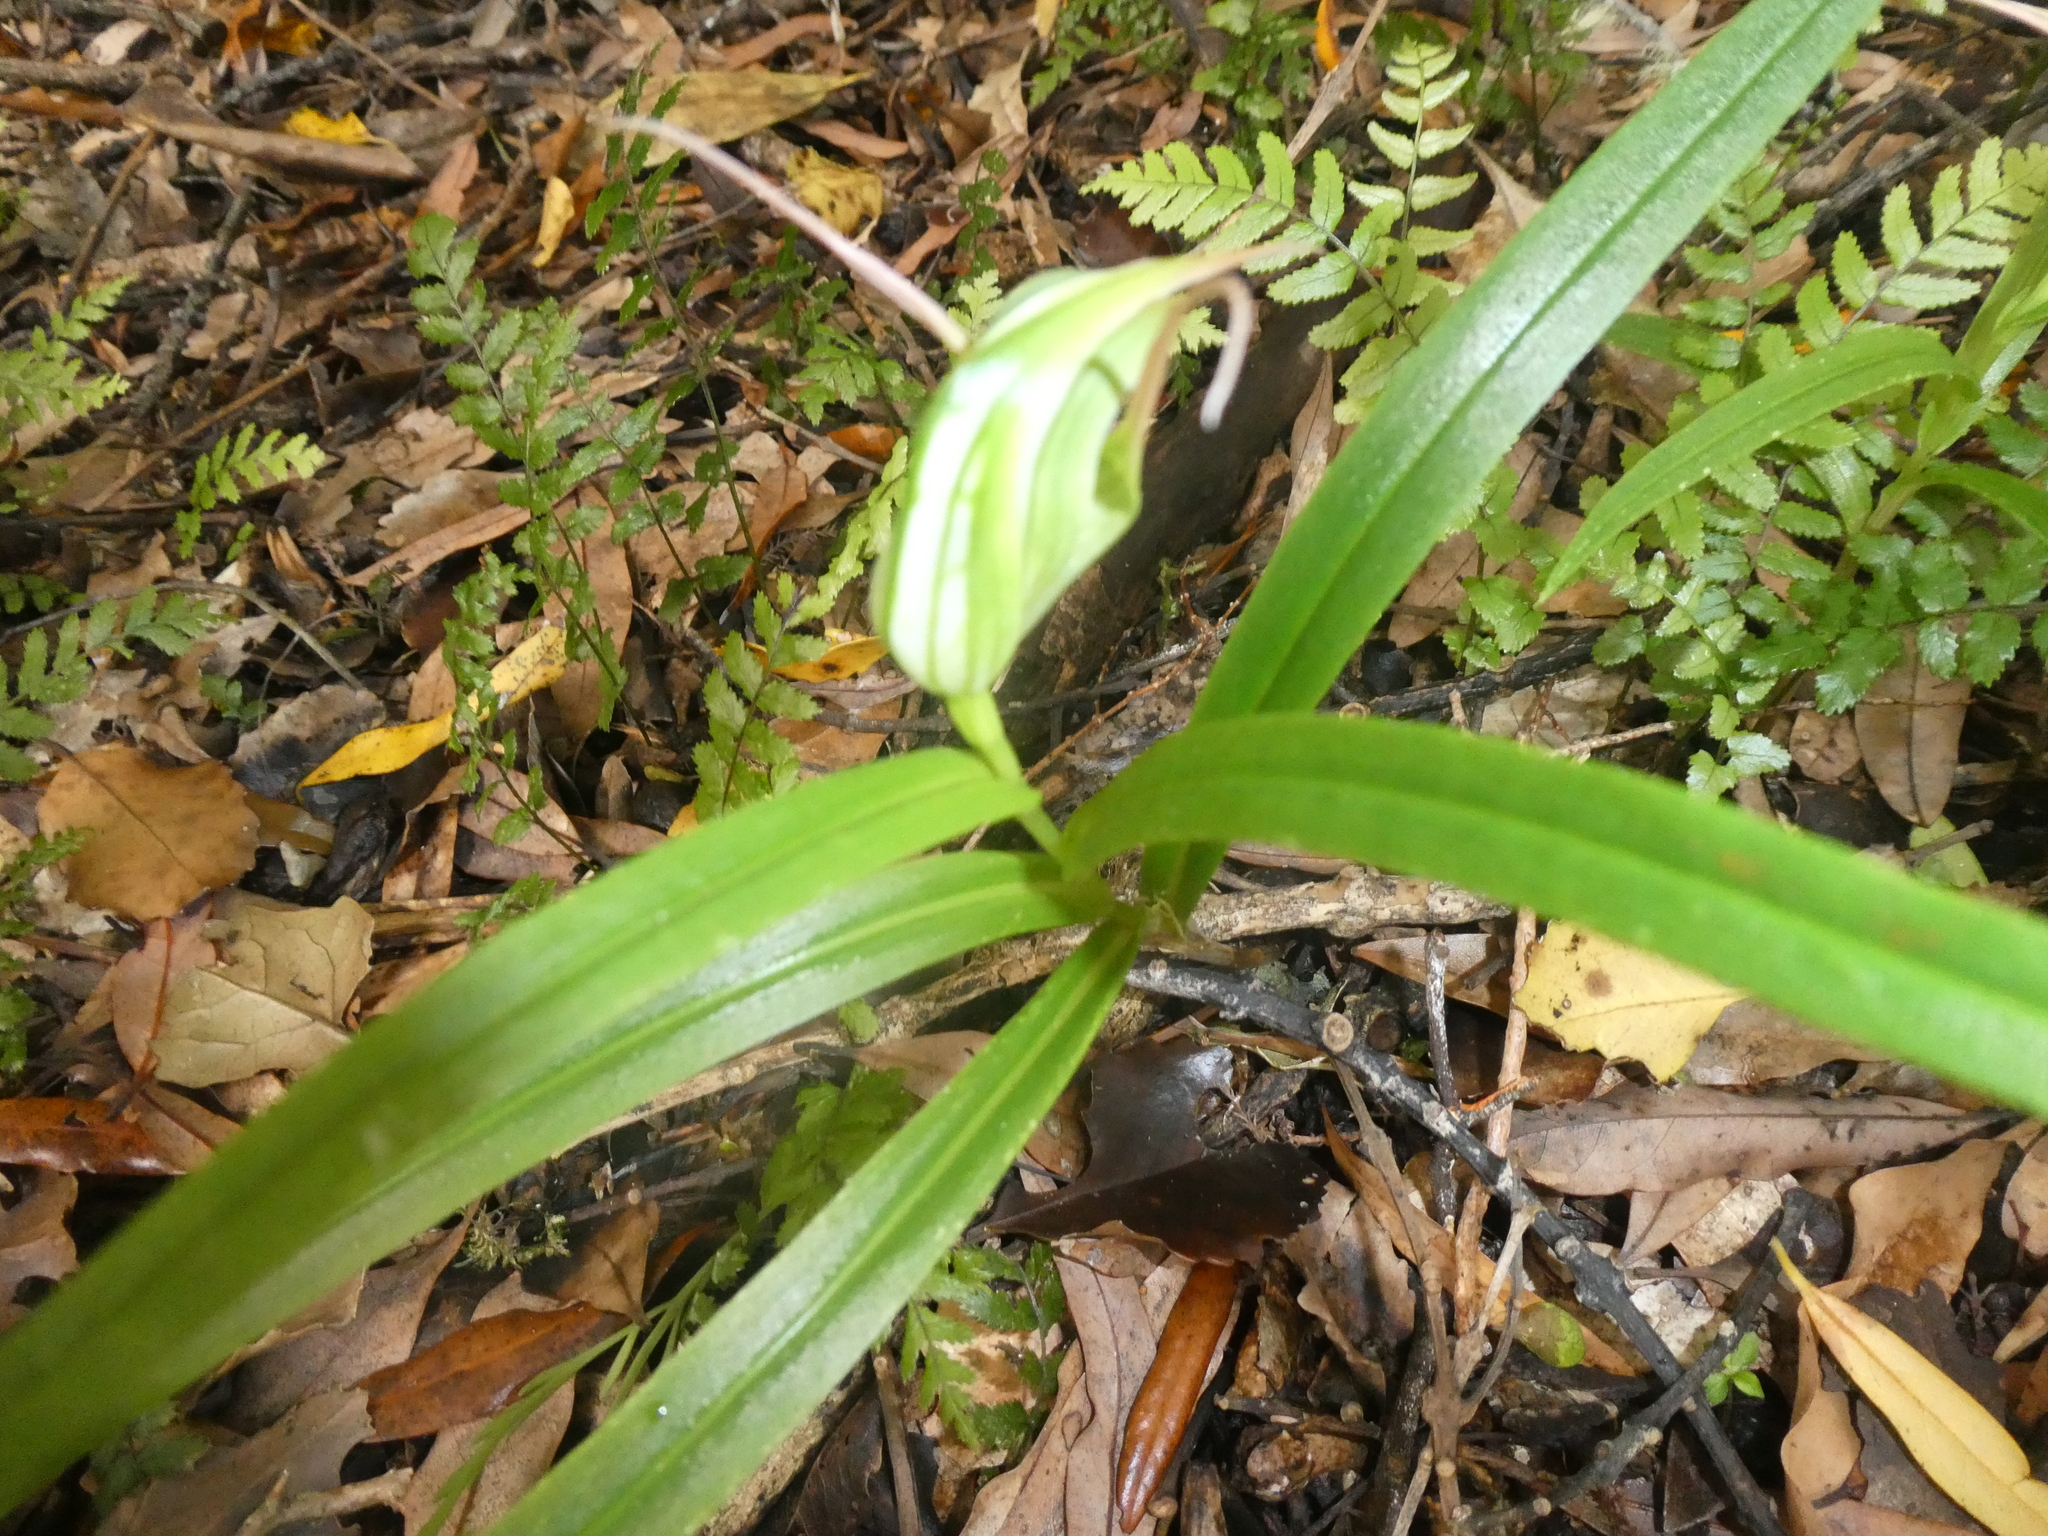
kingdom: Plantae
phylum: Tracheophyta
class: Liliopsida
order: Asparagales
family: Orchidaceae
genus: Pterostylis
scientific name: Pterostylis banksii
